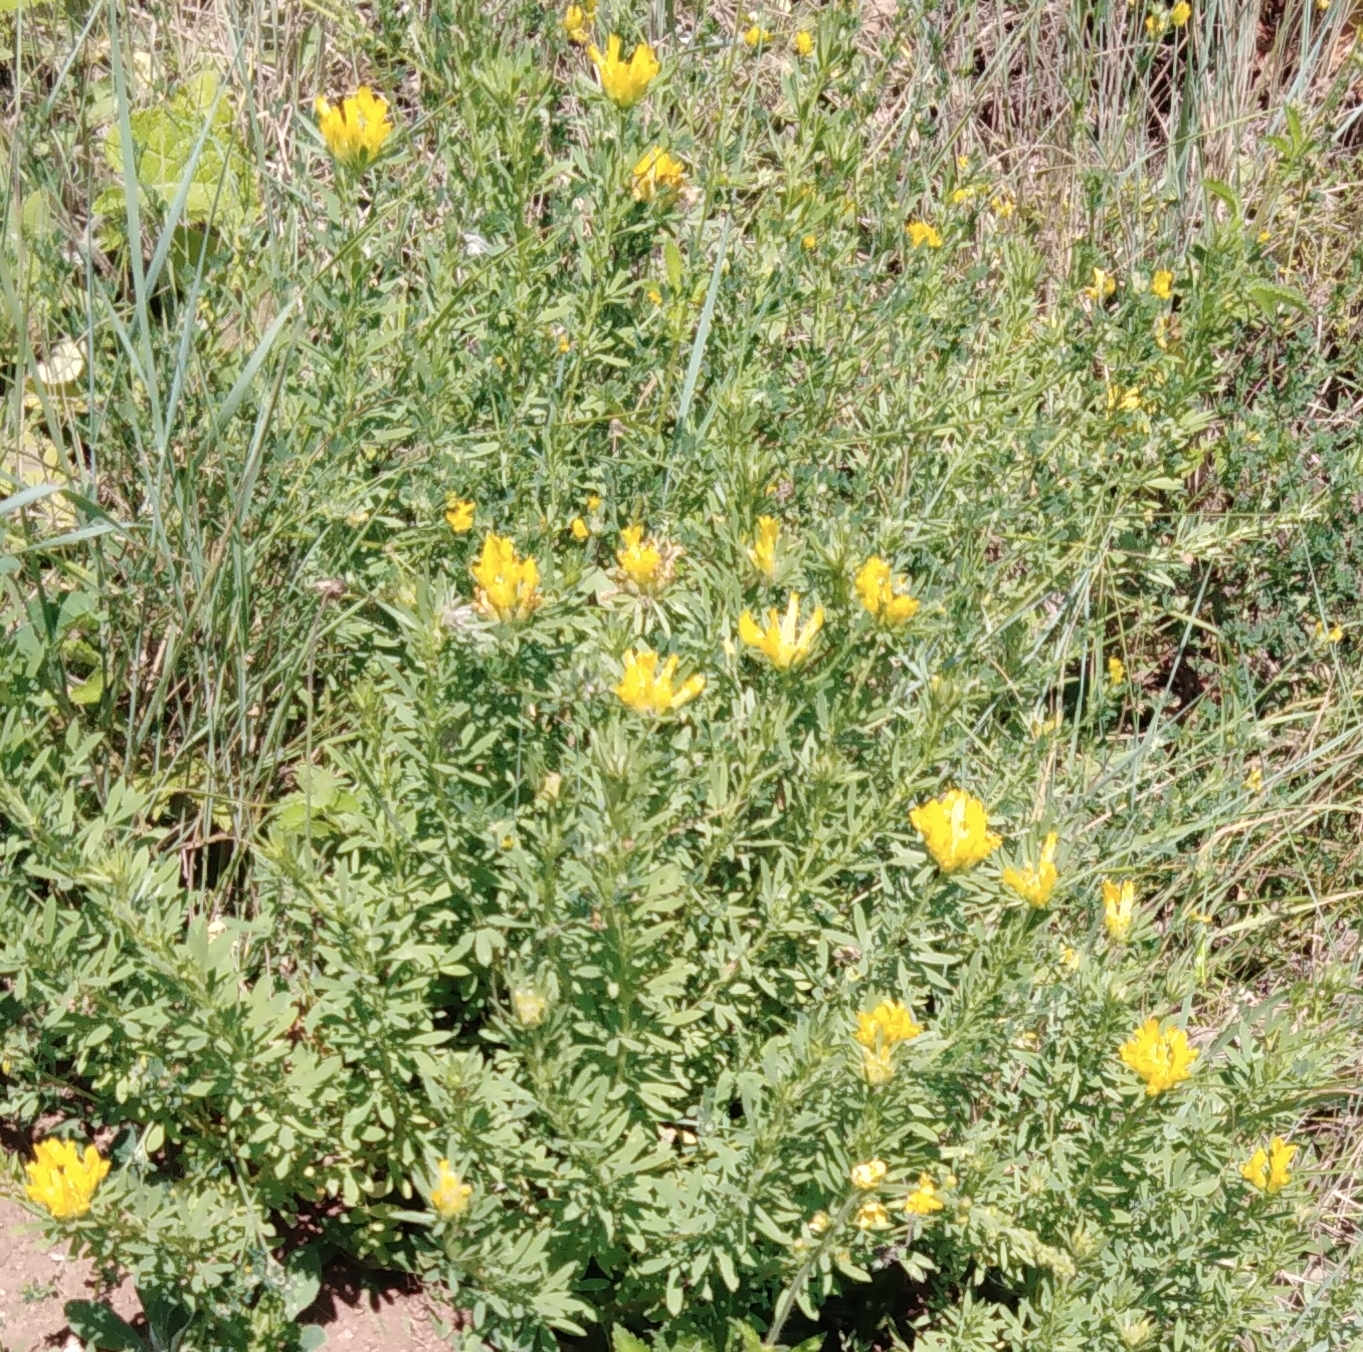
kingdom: Plantae
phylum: Tracheophyta
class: Magnoliopsida
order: Fabales
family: Fabaceae
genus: Chamaecytisus
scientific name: Chamaecytisus austriacus
